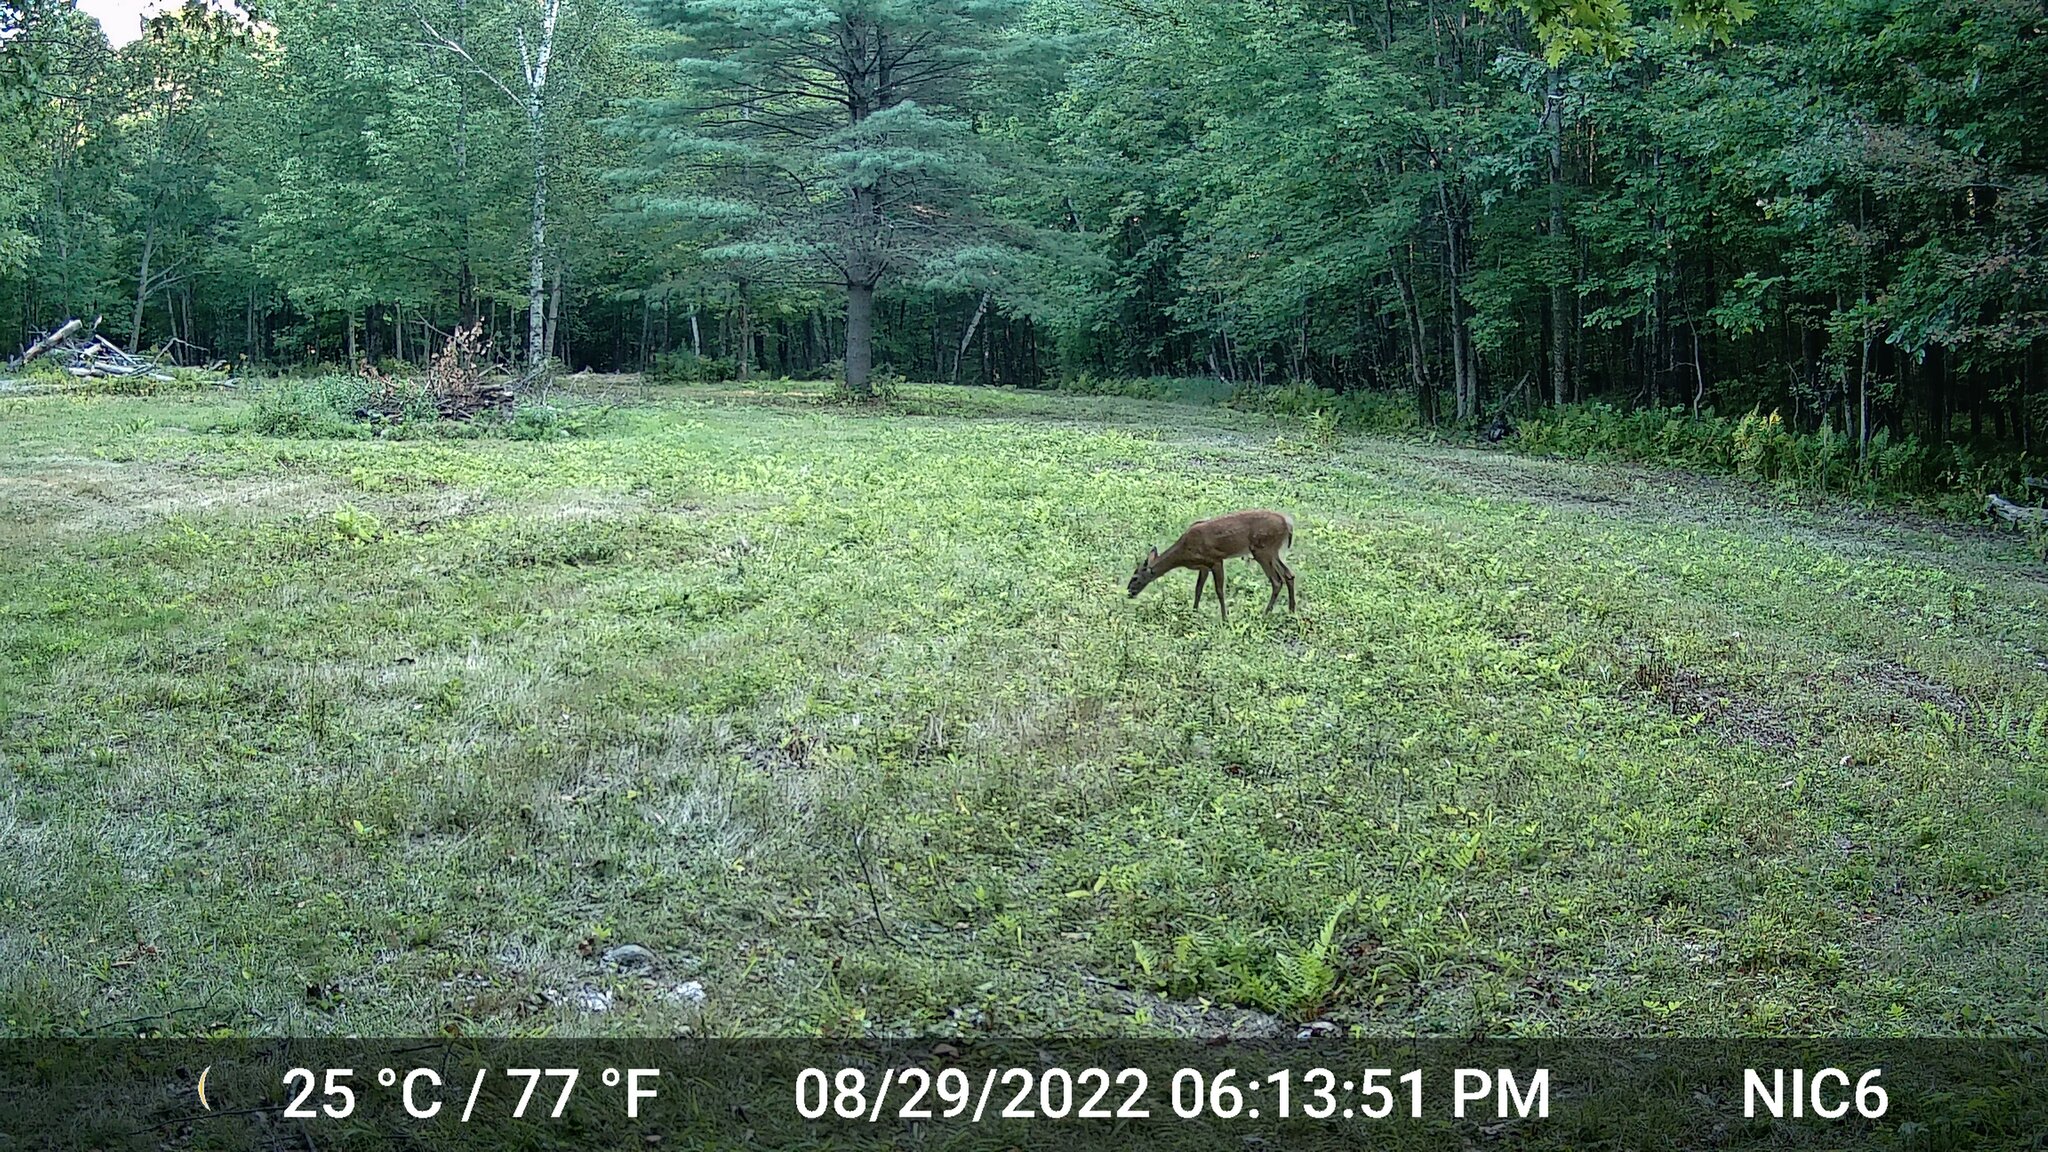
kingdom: Animalia
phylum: Chordata
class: Mammalia
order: Artiodactyla
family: Cervidae
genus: Odocoileus
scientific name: Odocoileus virginianus
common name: White-tailed deer
